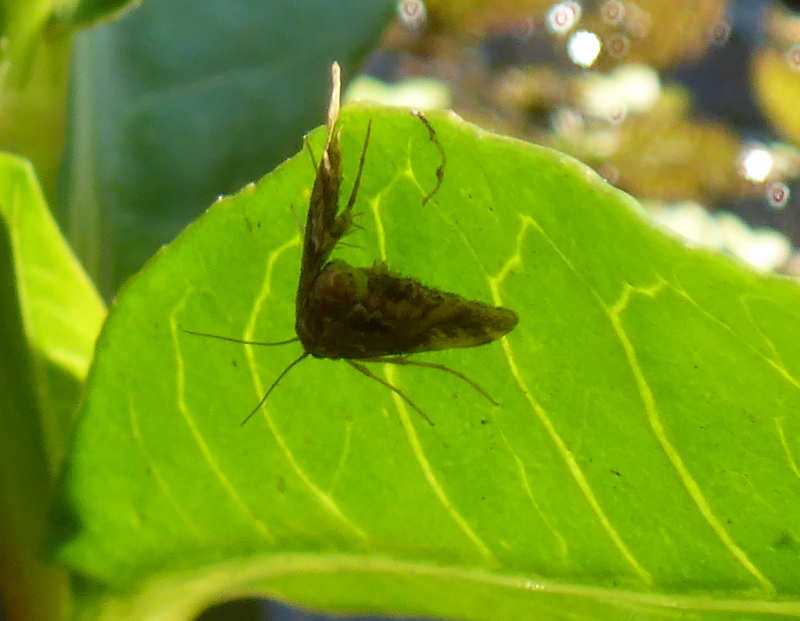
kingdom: Animalia
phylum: Arthropoda
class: Insecta
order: Lepidoptera
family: Crambidae
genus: Elophila
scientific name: Elophila obliteralis
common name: Waterlily leafcutter moth
